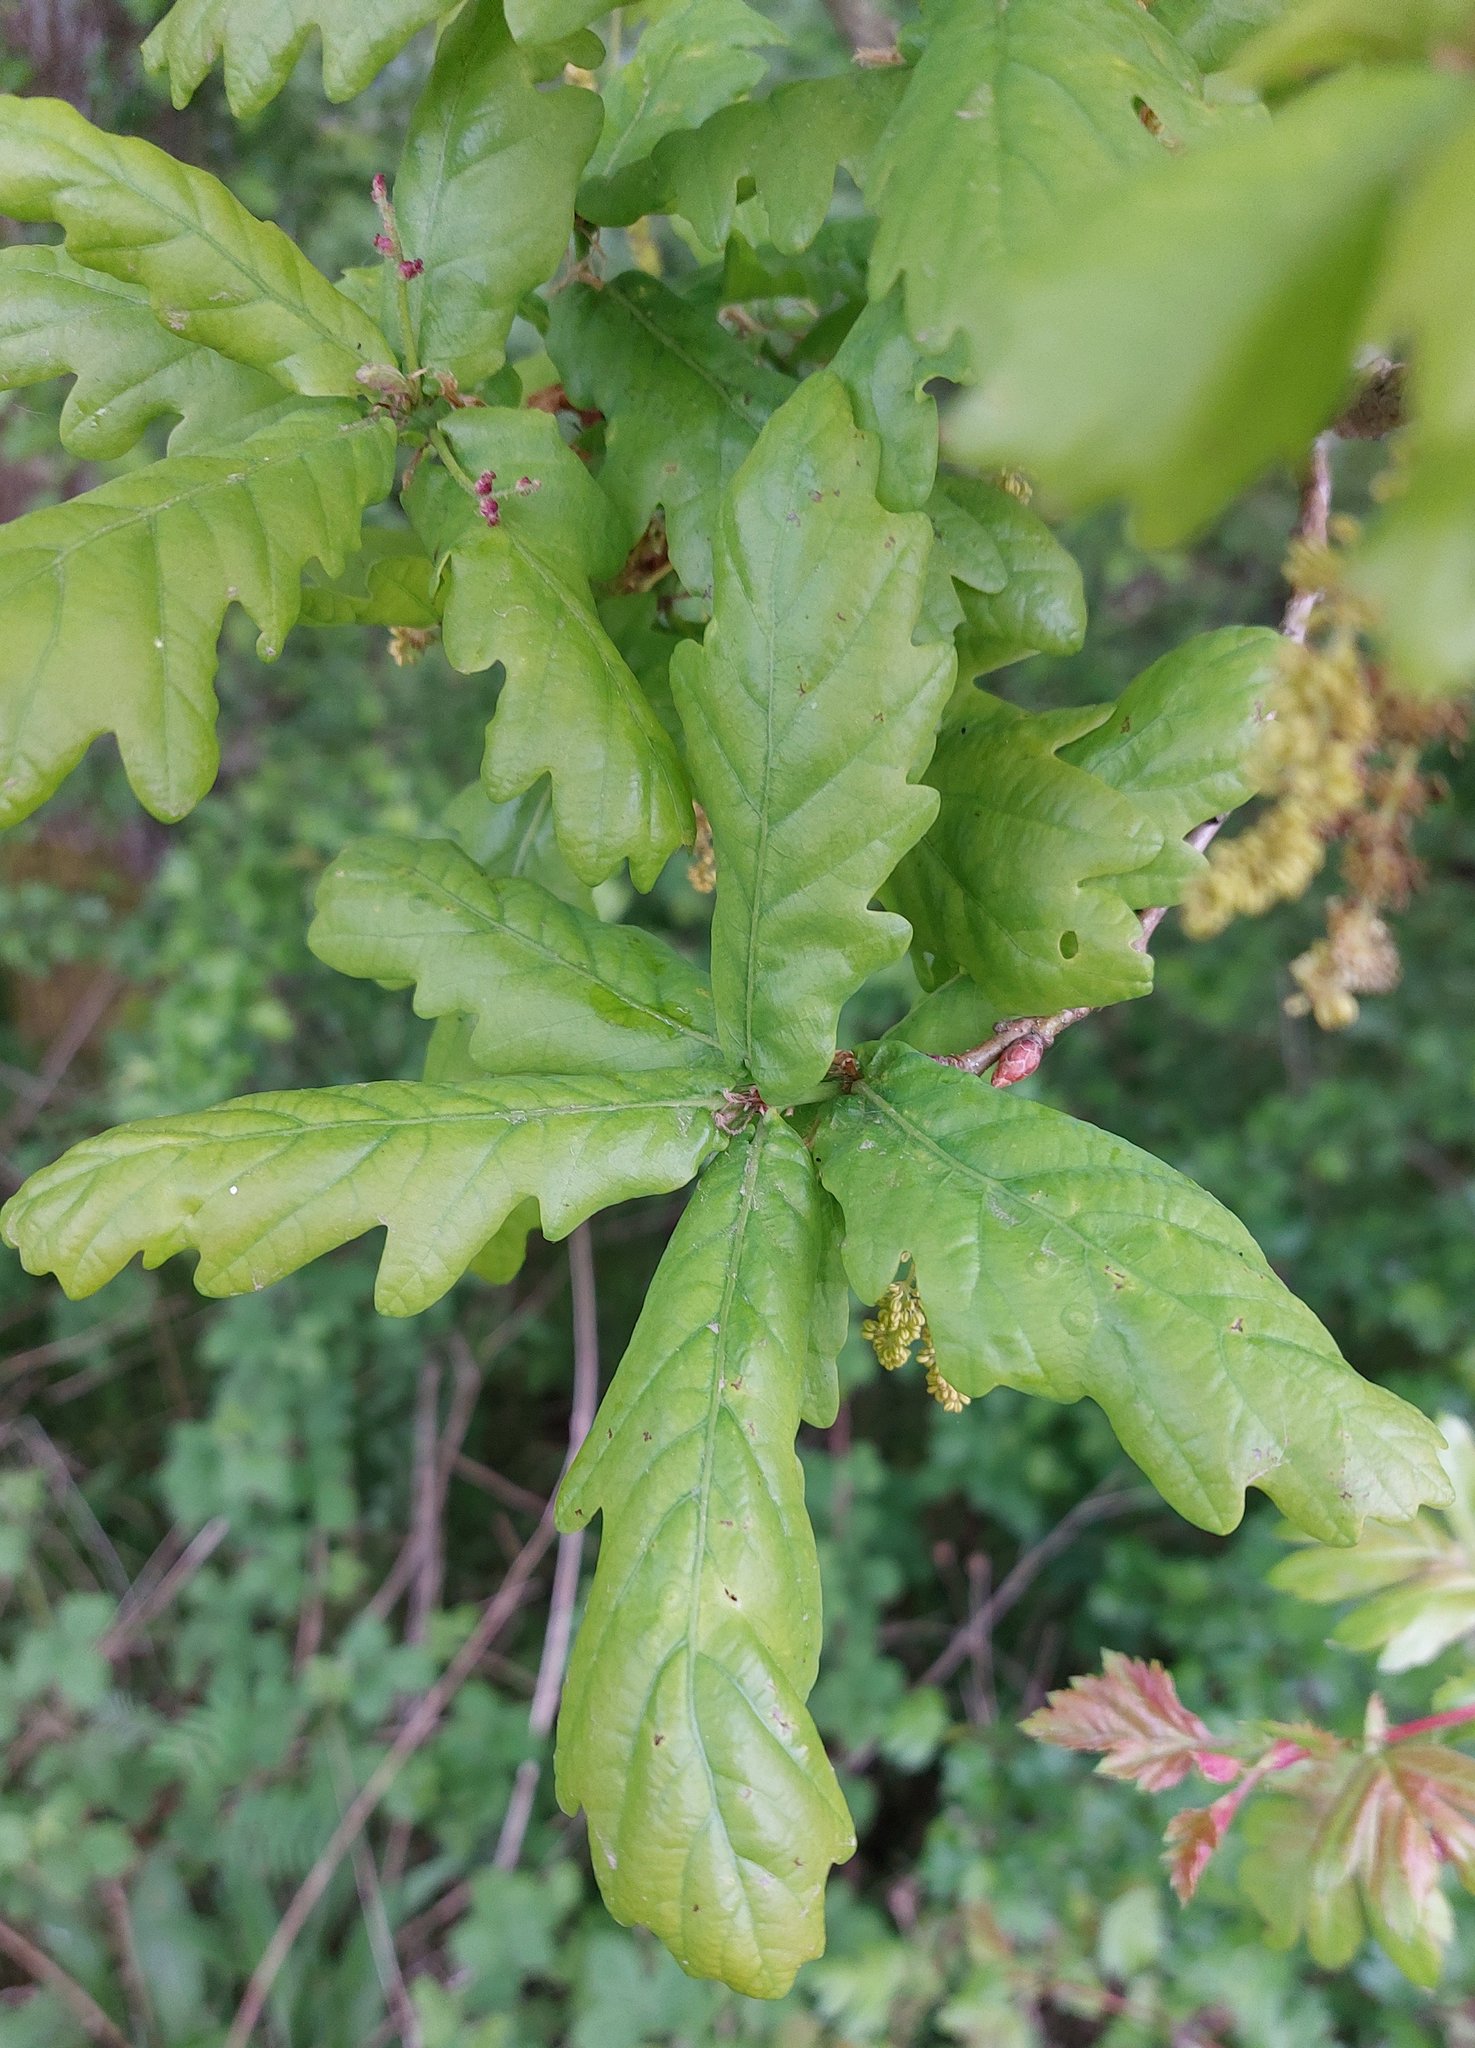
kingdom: Plantae
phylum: Tracheophyta
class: Magnoliopsida
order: Fagales
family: Fagaceae
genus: Quercus
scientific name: Quercus robur
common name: Pedunculate oak
